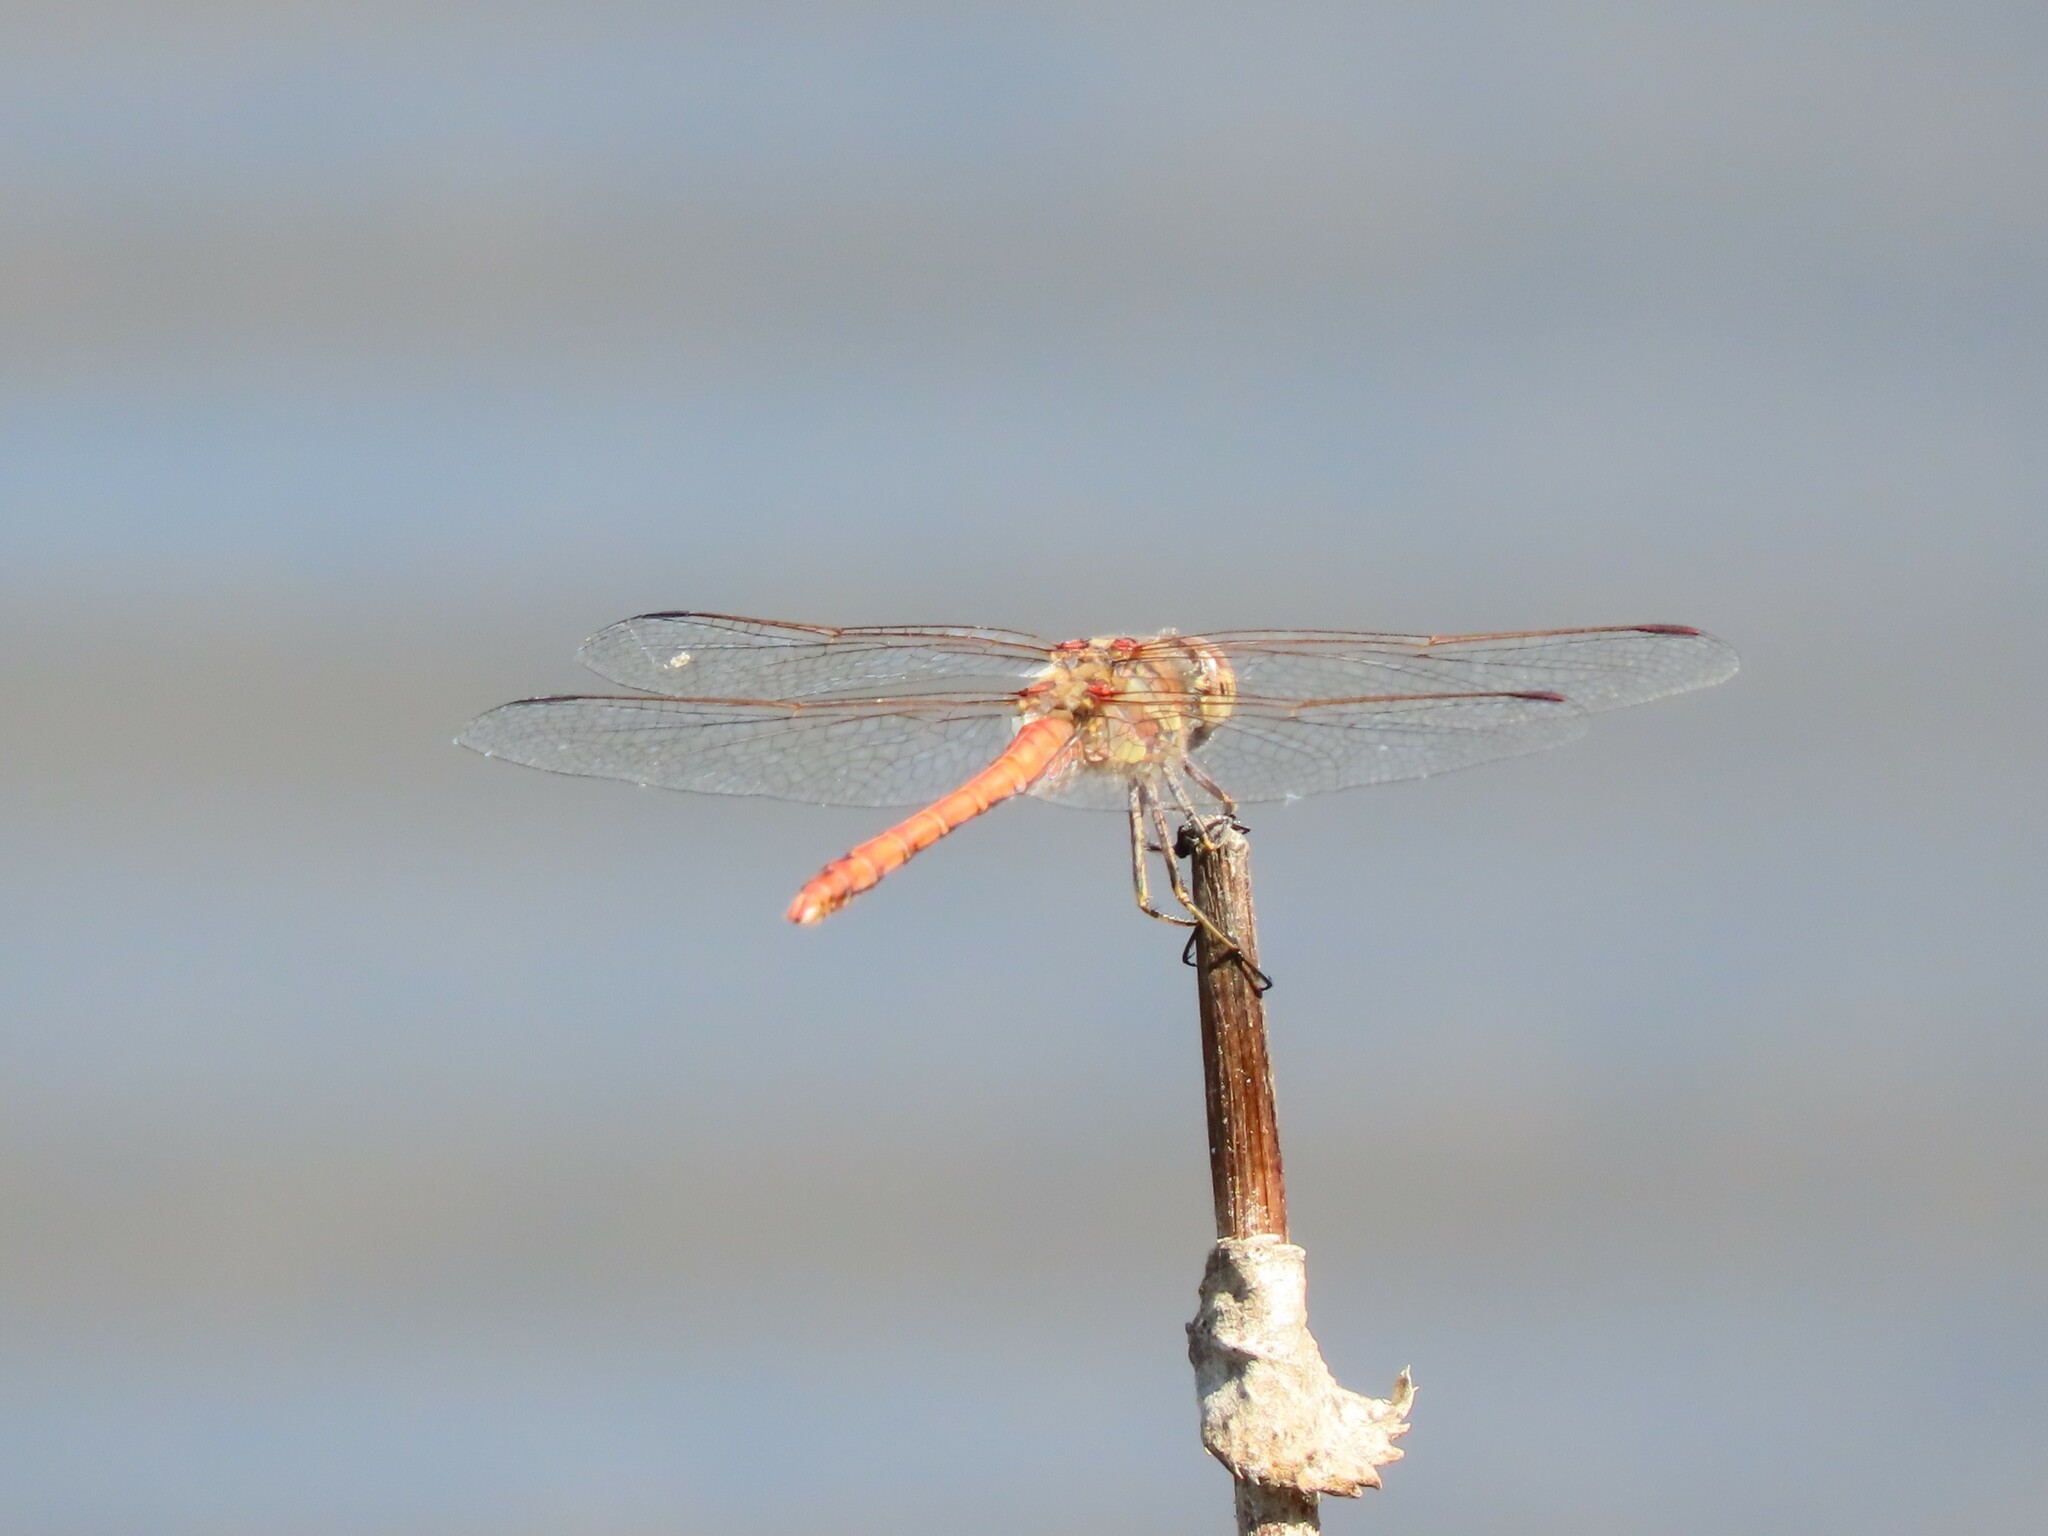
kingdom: Animalia
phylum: Arthropoda
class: Insecta
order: Odonata
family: Libellulidae
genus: Sympetrum
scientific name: Sympetrum striolatum
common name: Common darter
